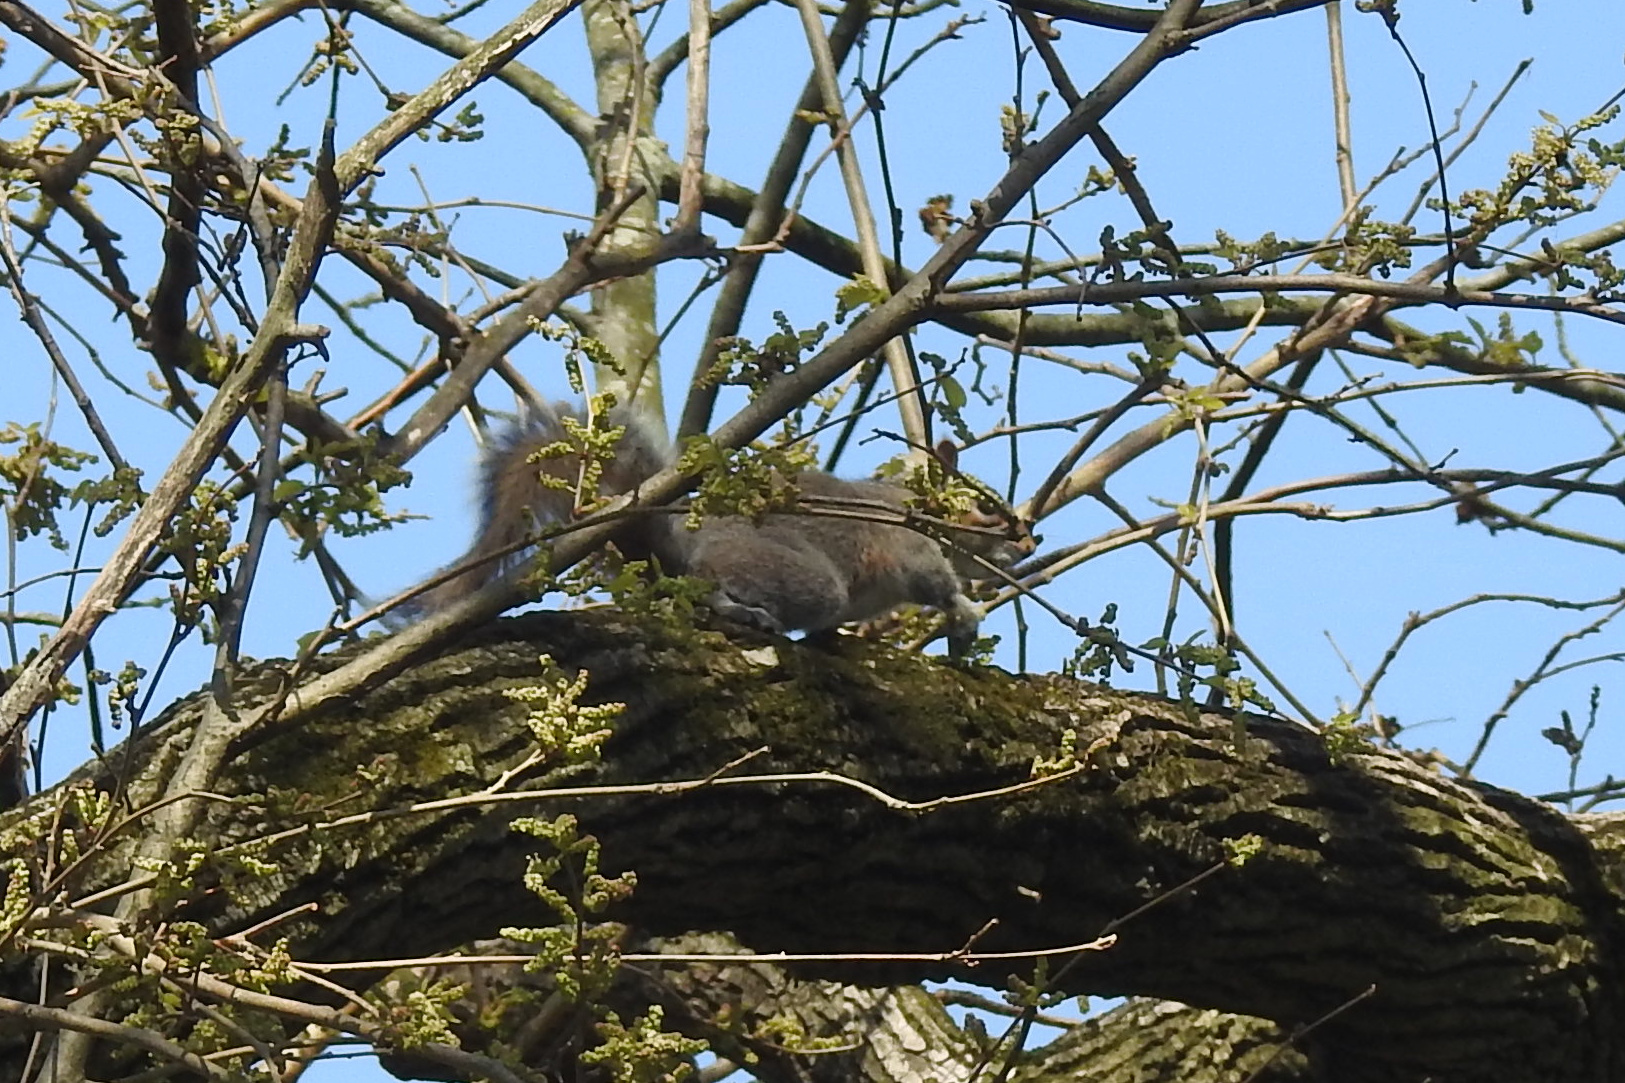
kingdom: Animalia
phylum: Chordata
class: Mammalia
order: Rodentia
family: Sciuridae
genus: Sciurus
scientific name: Sciurus carolinensis
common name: Eastern gray squirrel
